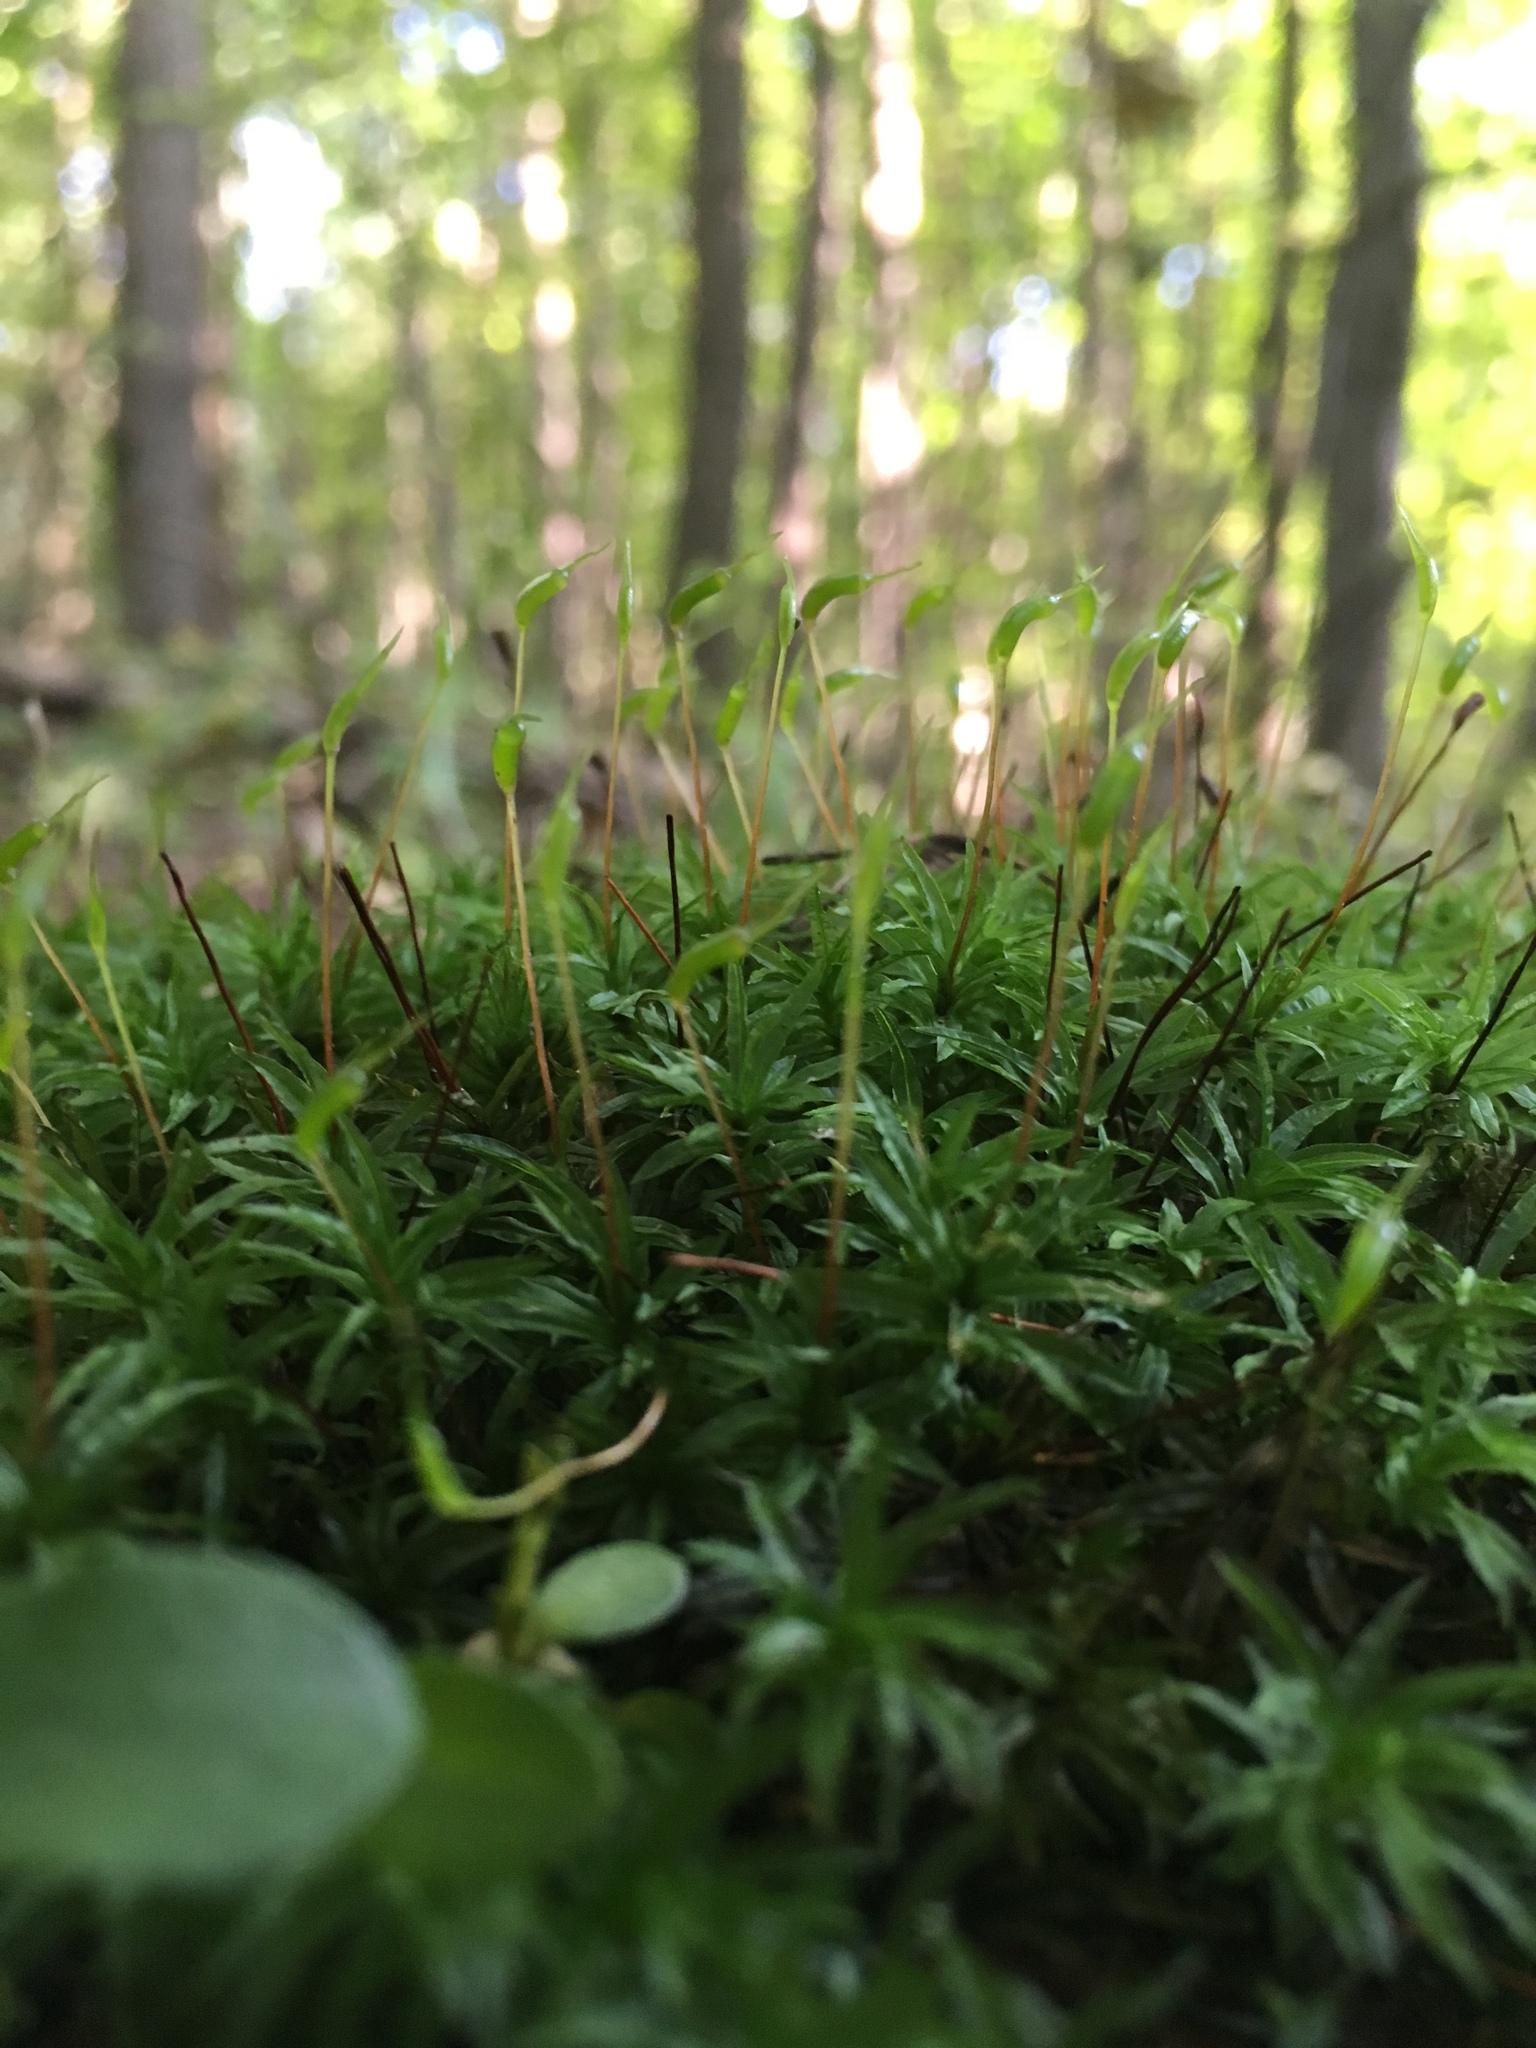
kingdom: Plantae
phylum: Bryophyta
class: Polytrichopsida
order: Polytrichales
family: Polytrichaceae
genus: Atrichum
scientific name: Atrichum undulatum
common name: Common smoothcap
